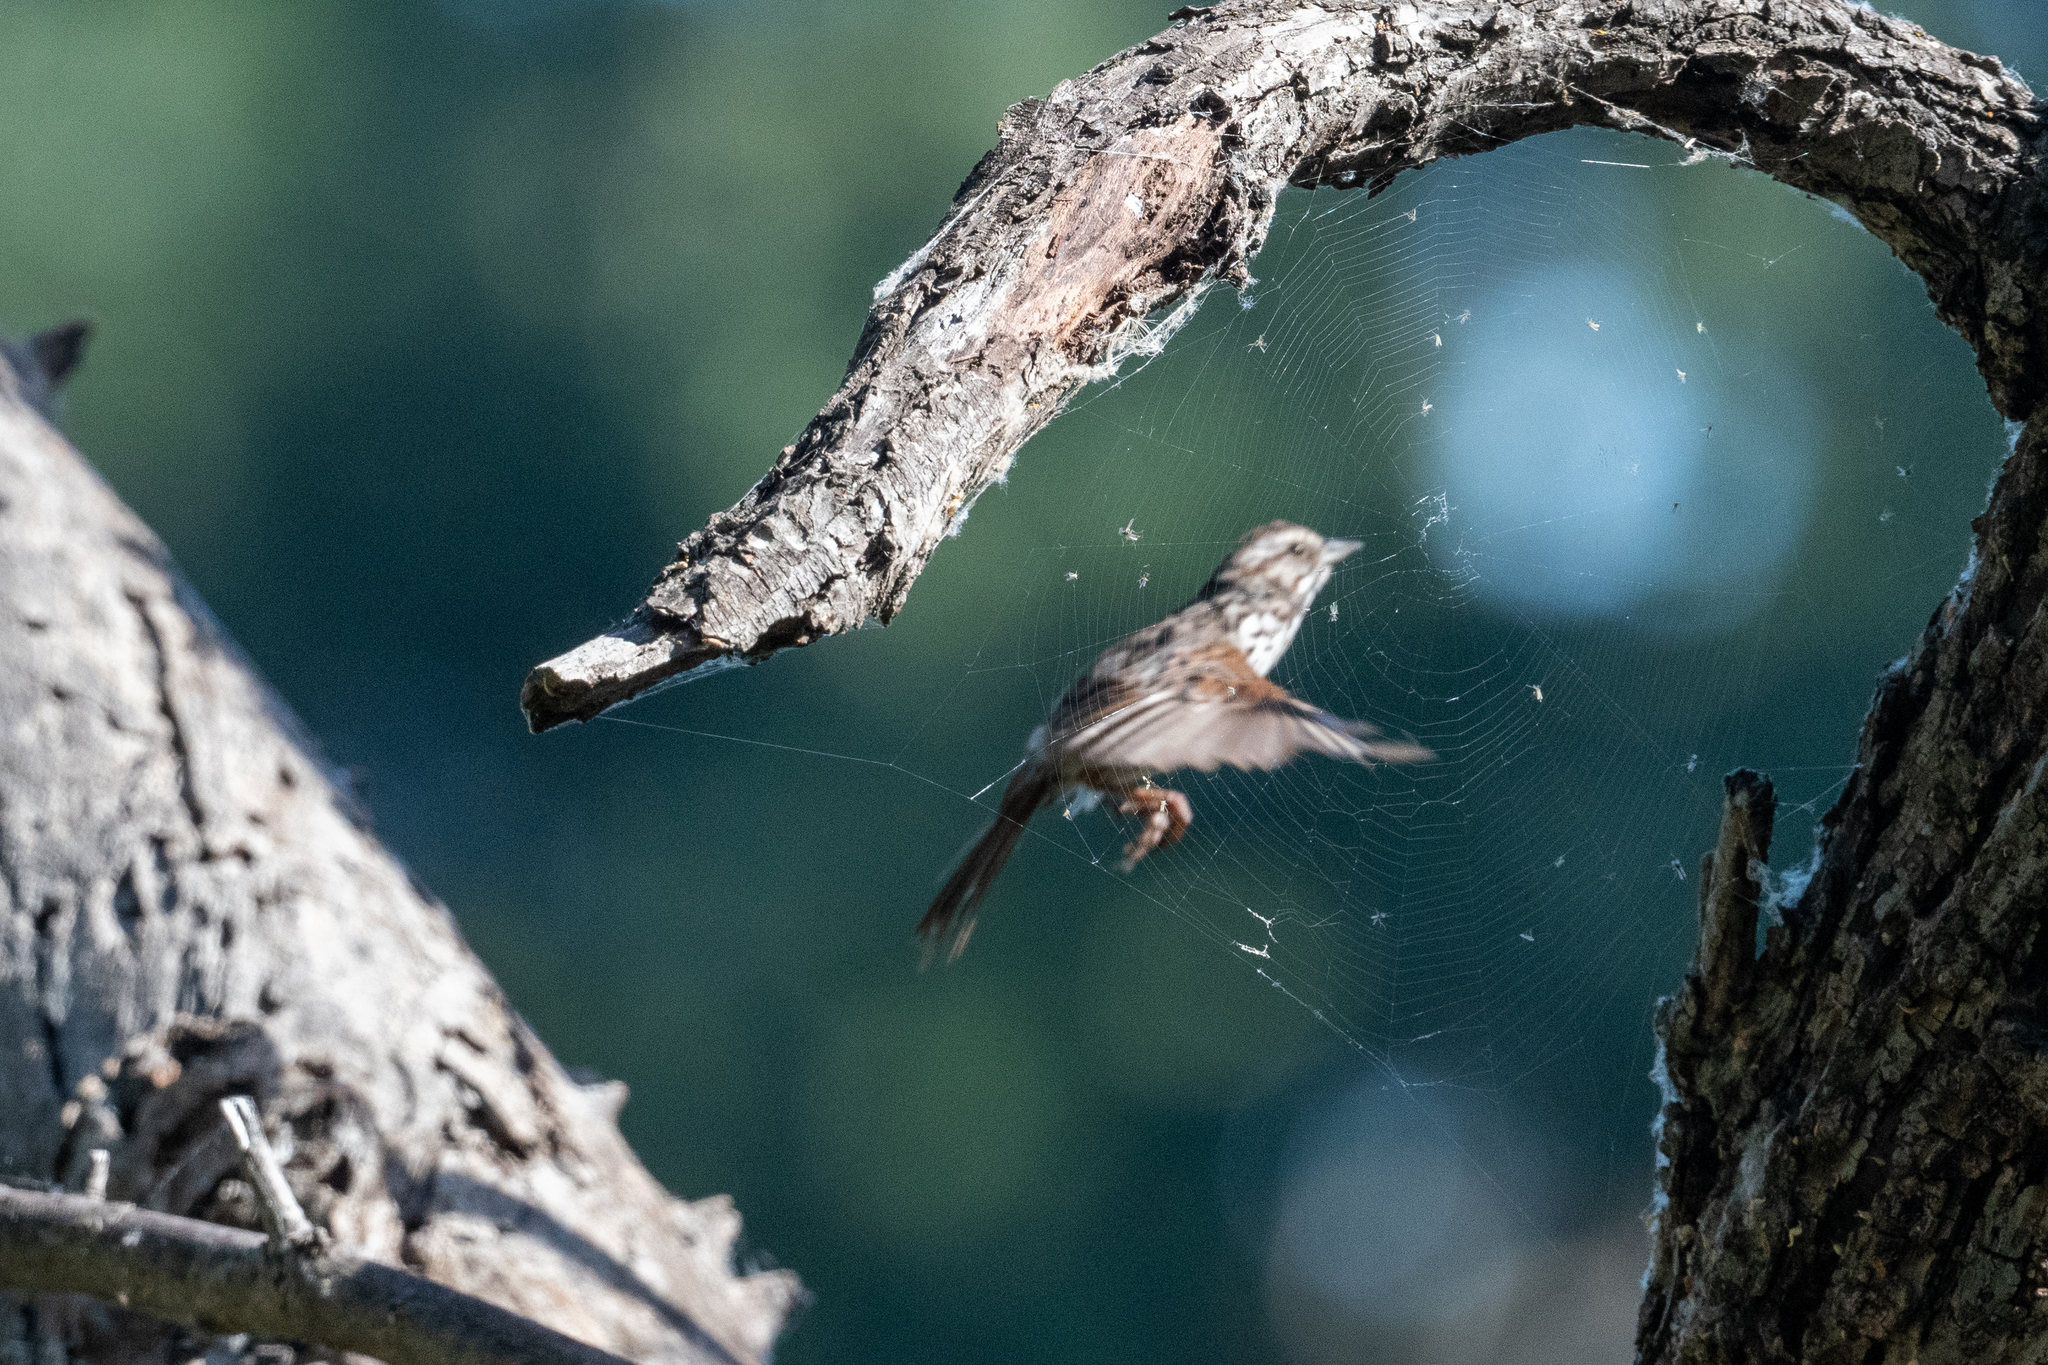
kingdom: Animalia
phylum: Chordata
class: Aves
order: Passeriformes
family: Passerellidae
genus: Melospiza
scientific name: Melospiza melodia
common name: Song sparrow
